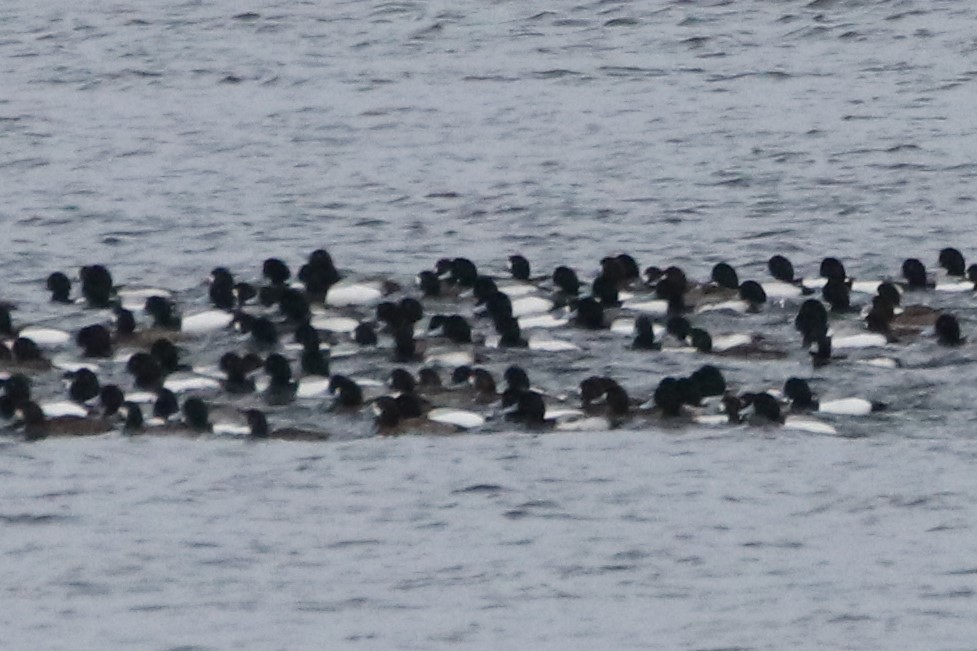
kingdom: Animalia
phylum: Chordata
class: Aves
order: Anseriformes
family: Anatidae
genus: Aythya
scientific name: Aythya marila
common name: Greater scaup
